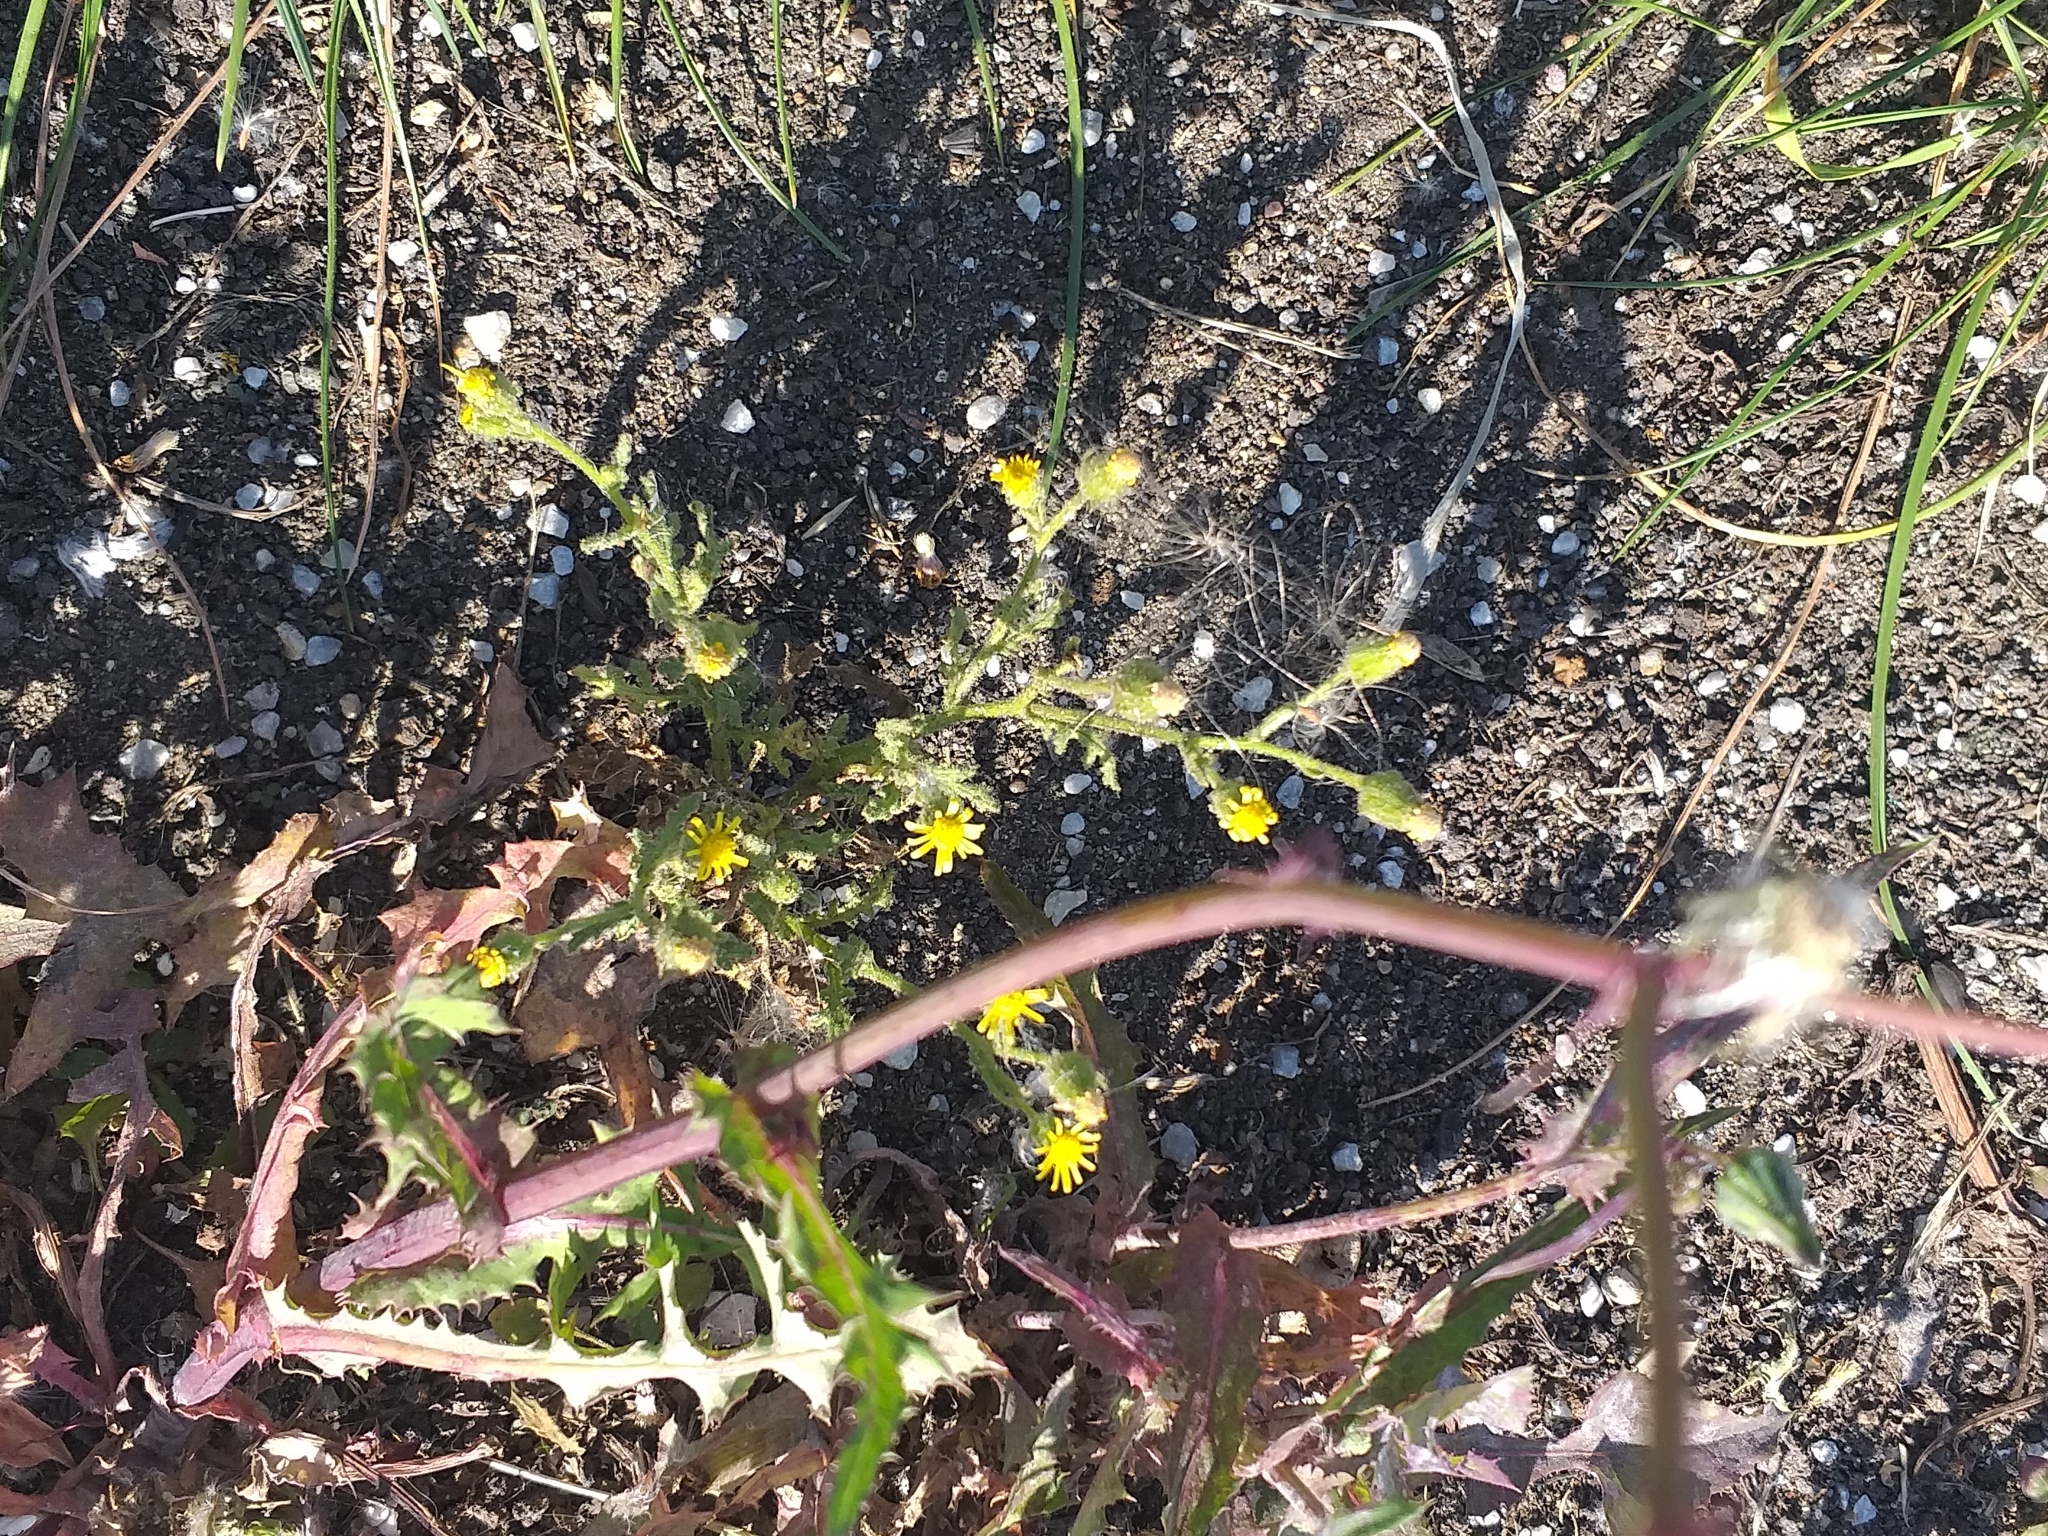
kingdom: Plantae
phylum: Tracheophyta
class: Magnoliopsida
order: Asterales
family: Asteraceae
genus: Senecio
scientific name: Senecio viscosus
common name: Sticky groundsel
